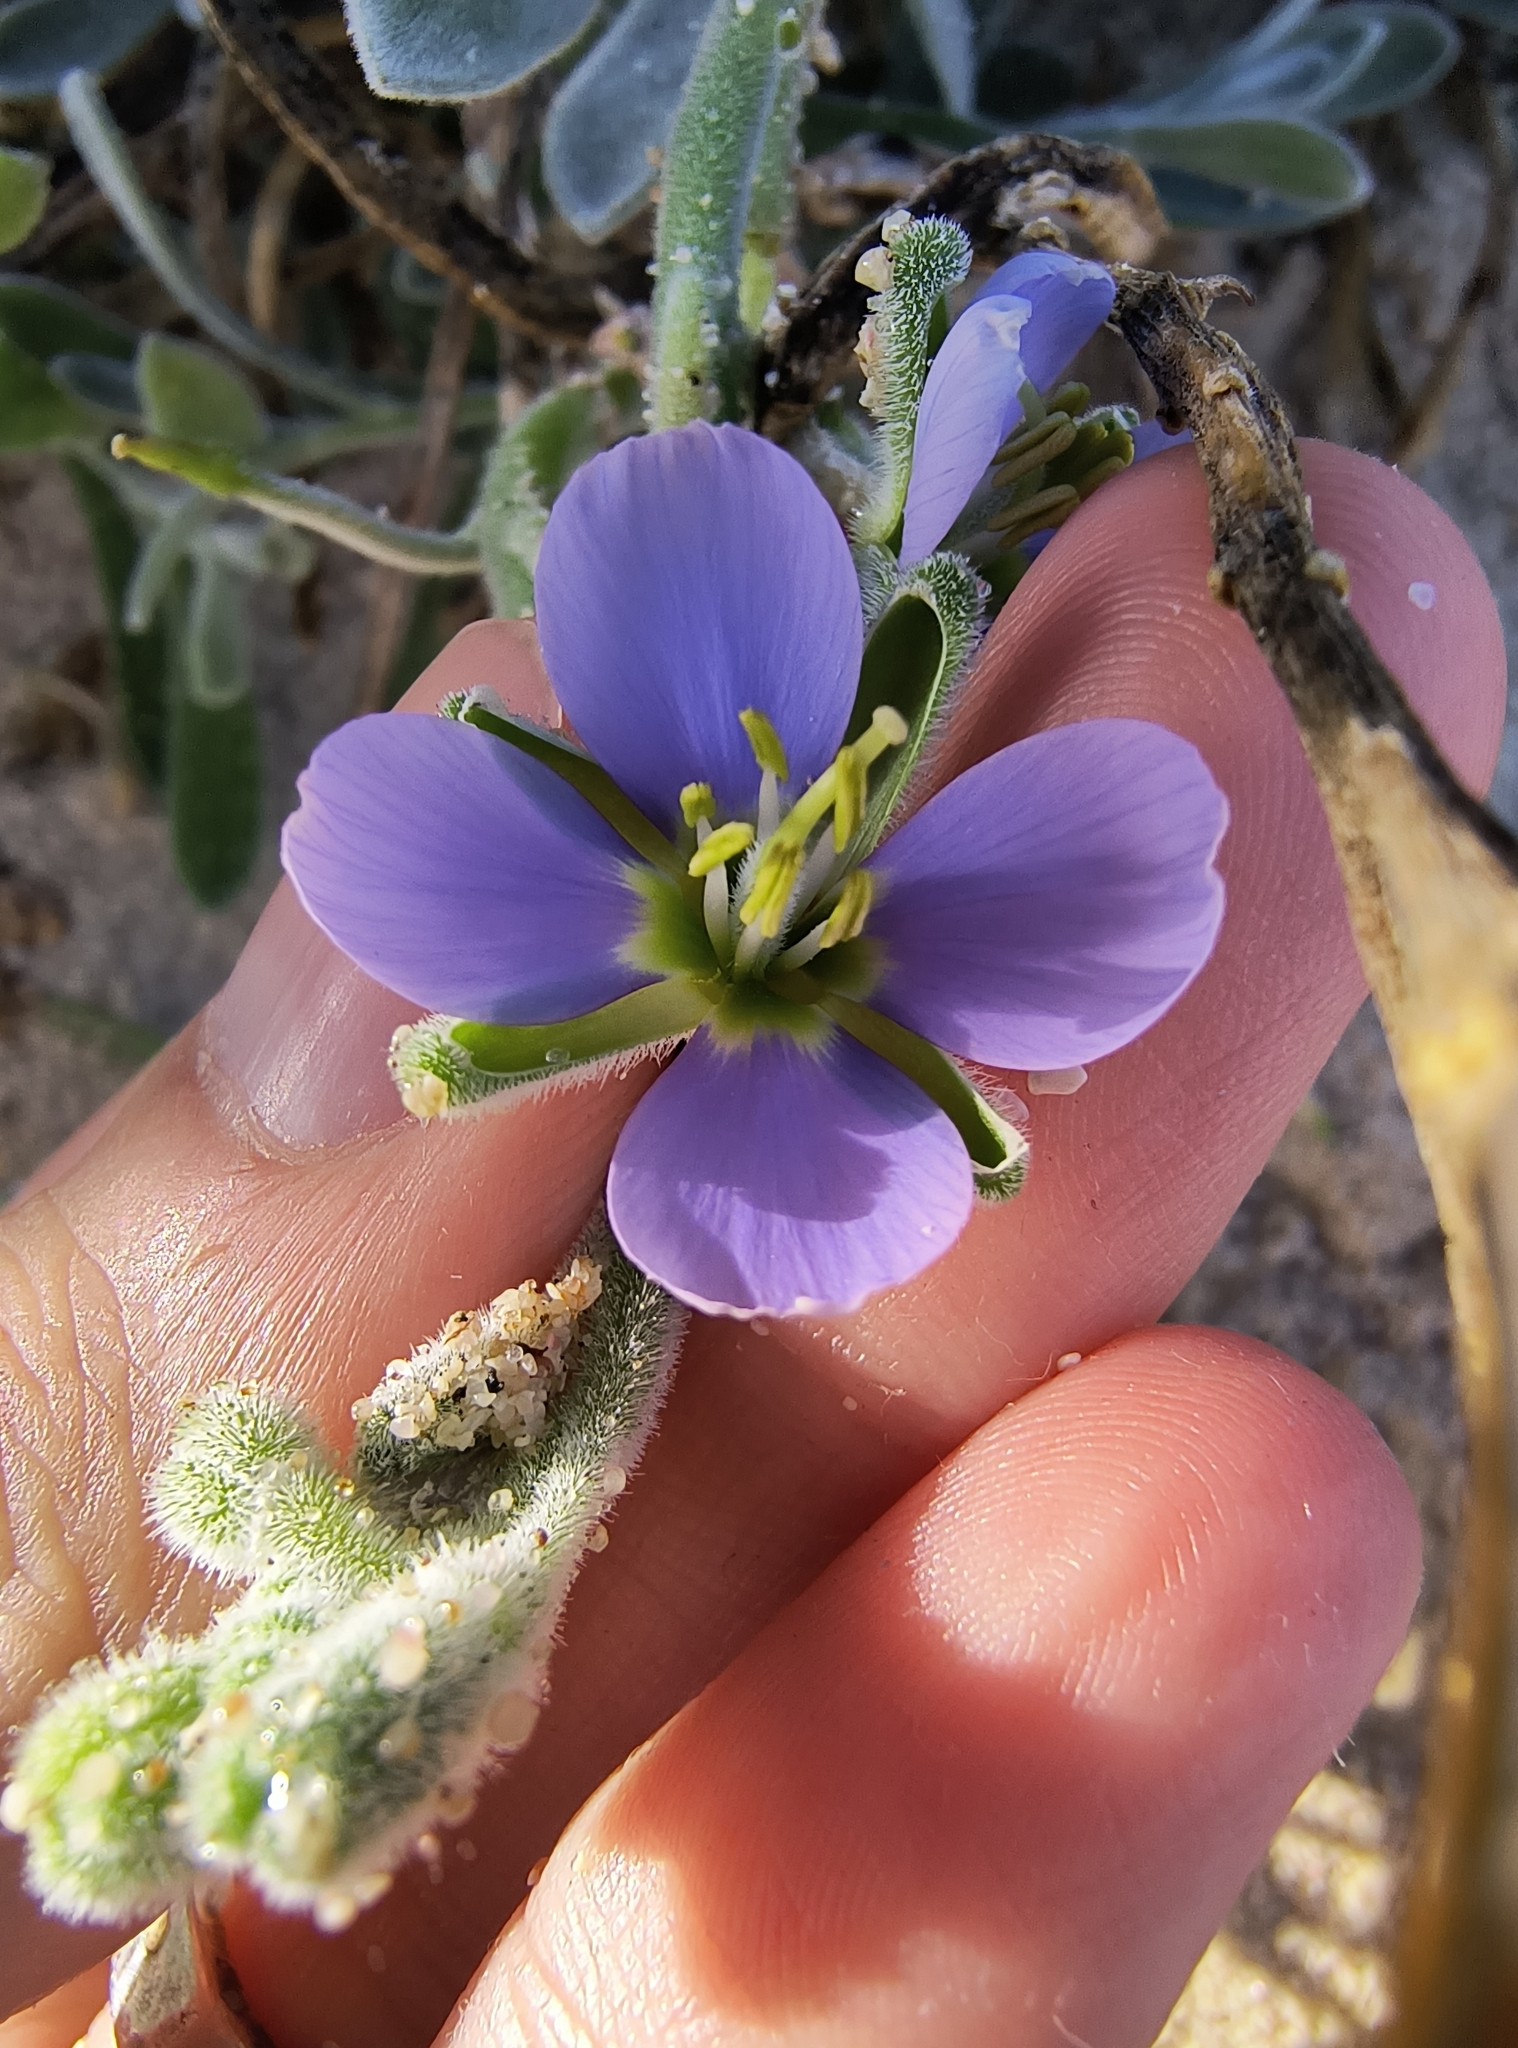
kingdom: Plantae
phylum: Tracheophyta
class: Magnoliopsida
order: Brassicales
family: Brassicaceae
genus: Heliophila
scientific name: Heliophila cinerea
